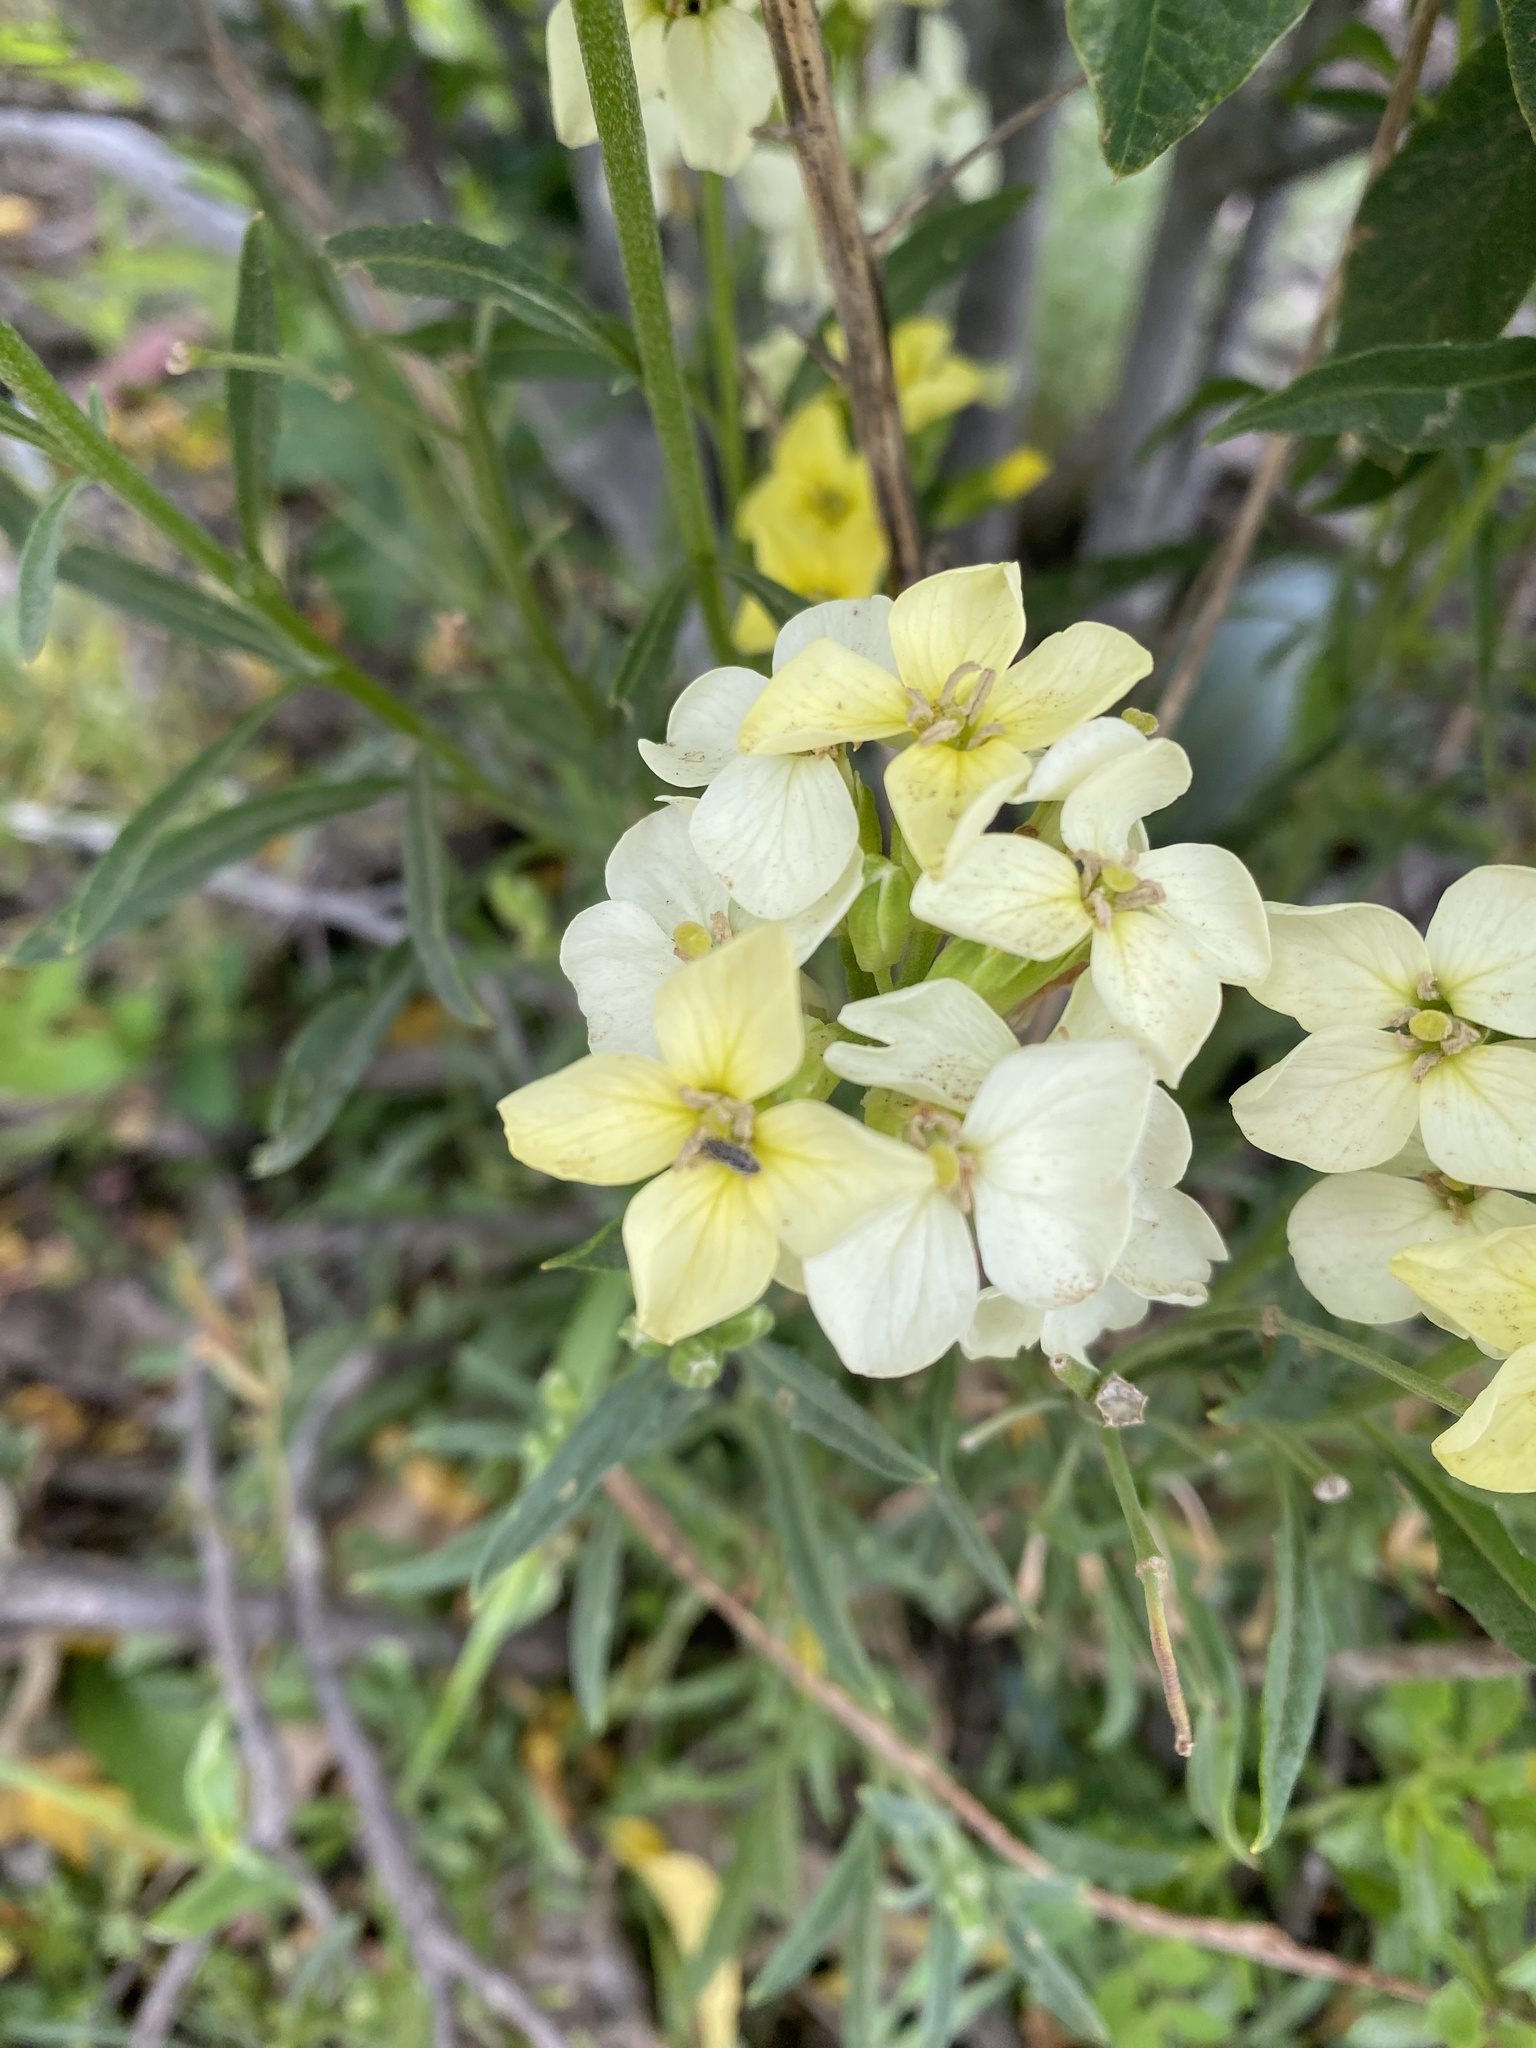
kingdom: Plantae
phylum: Tracheophyta
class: Magnoliopsida
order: Brassicales
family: Brassicaceae
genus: Erysimum
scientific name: Erysimum franciscanum
